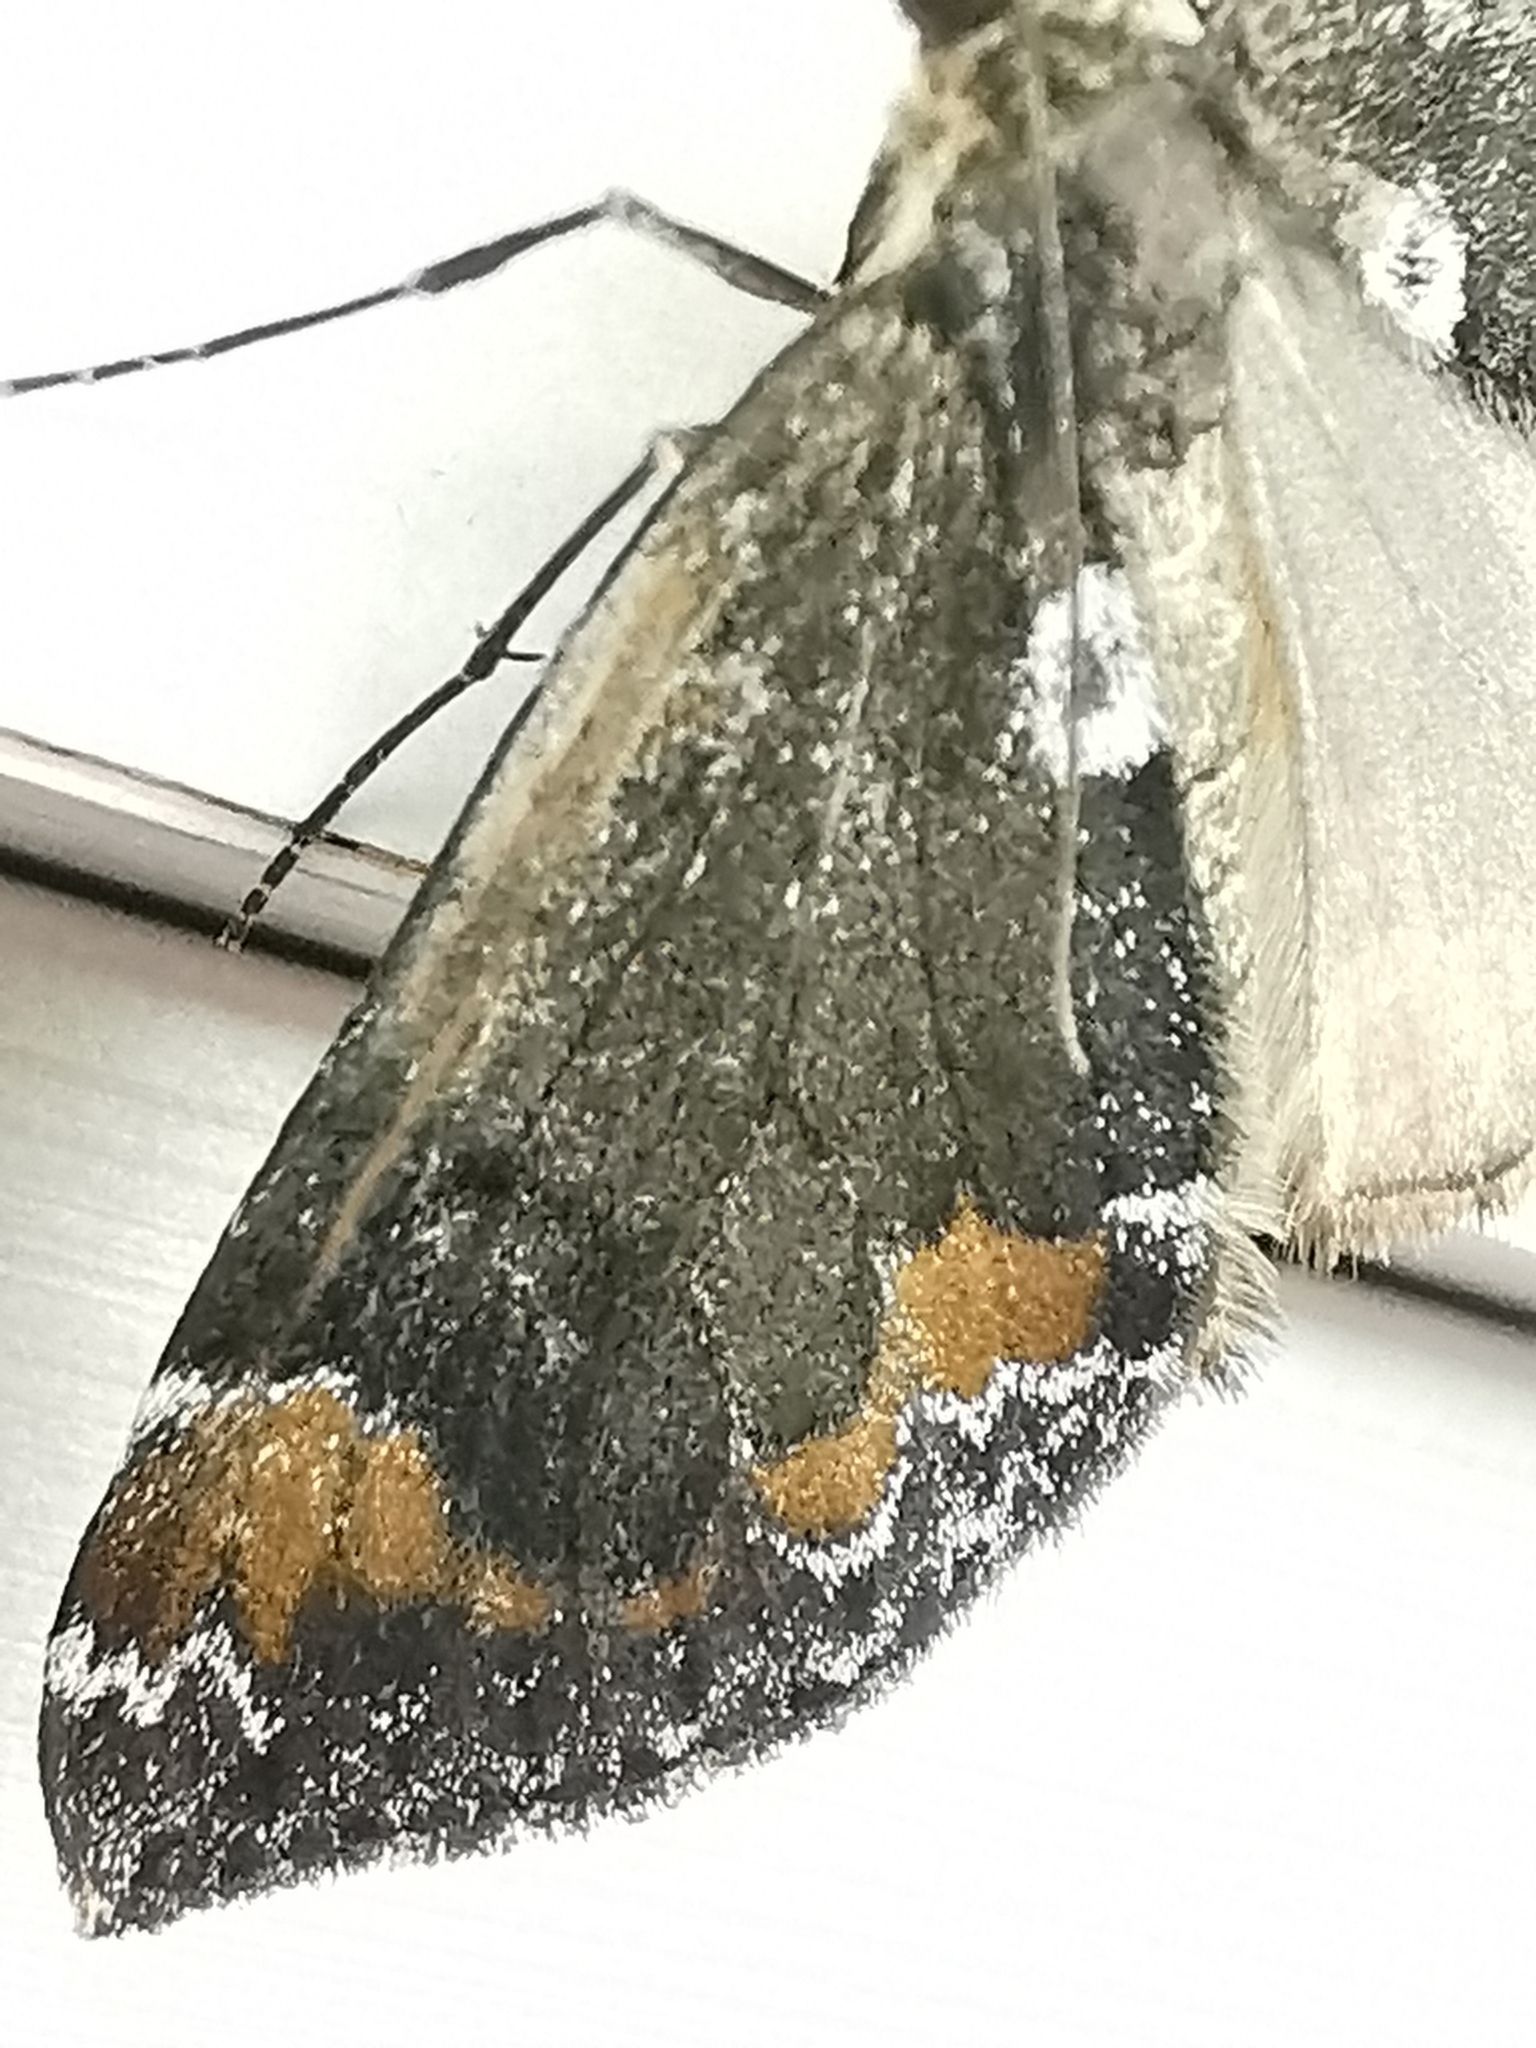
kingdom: Animalia
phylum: Arthropoda
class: Insecta
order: Lepidoptera
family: Geometridae
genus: Dysstroma
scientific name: Dysstroma latefasciata
